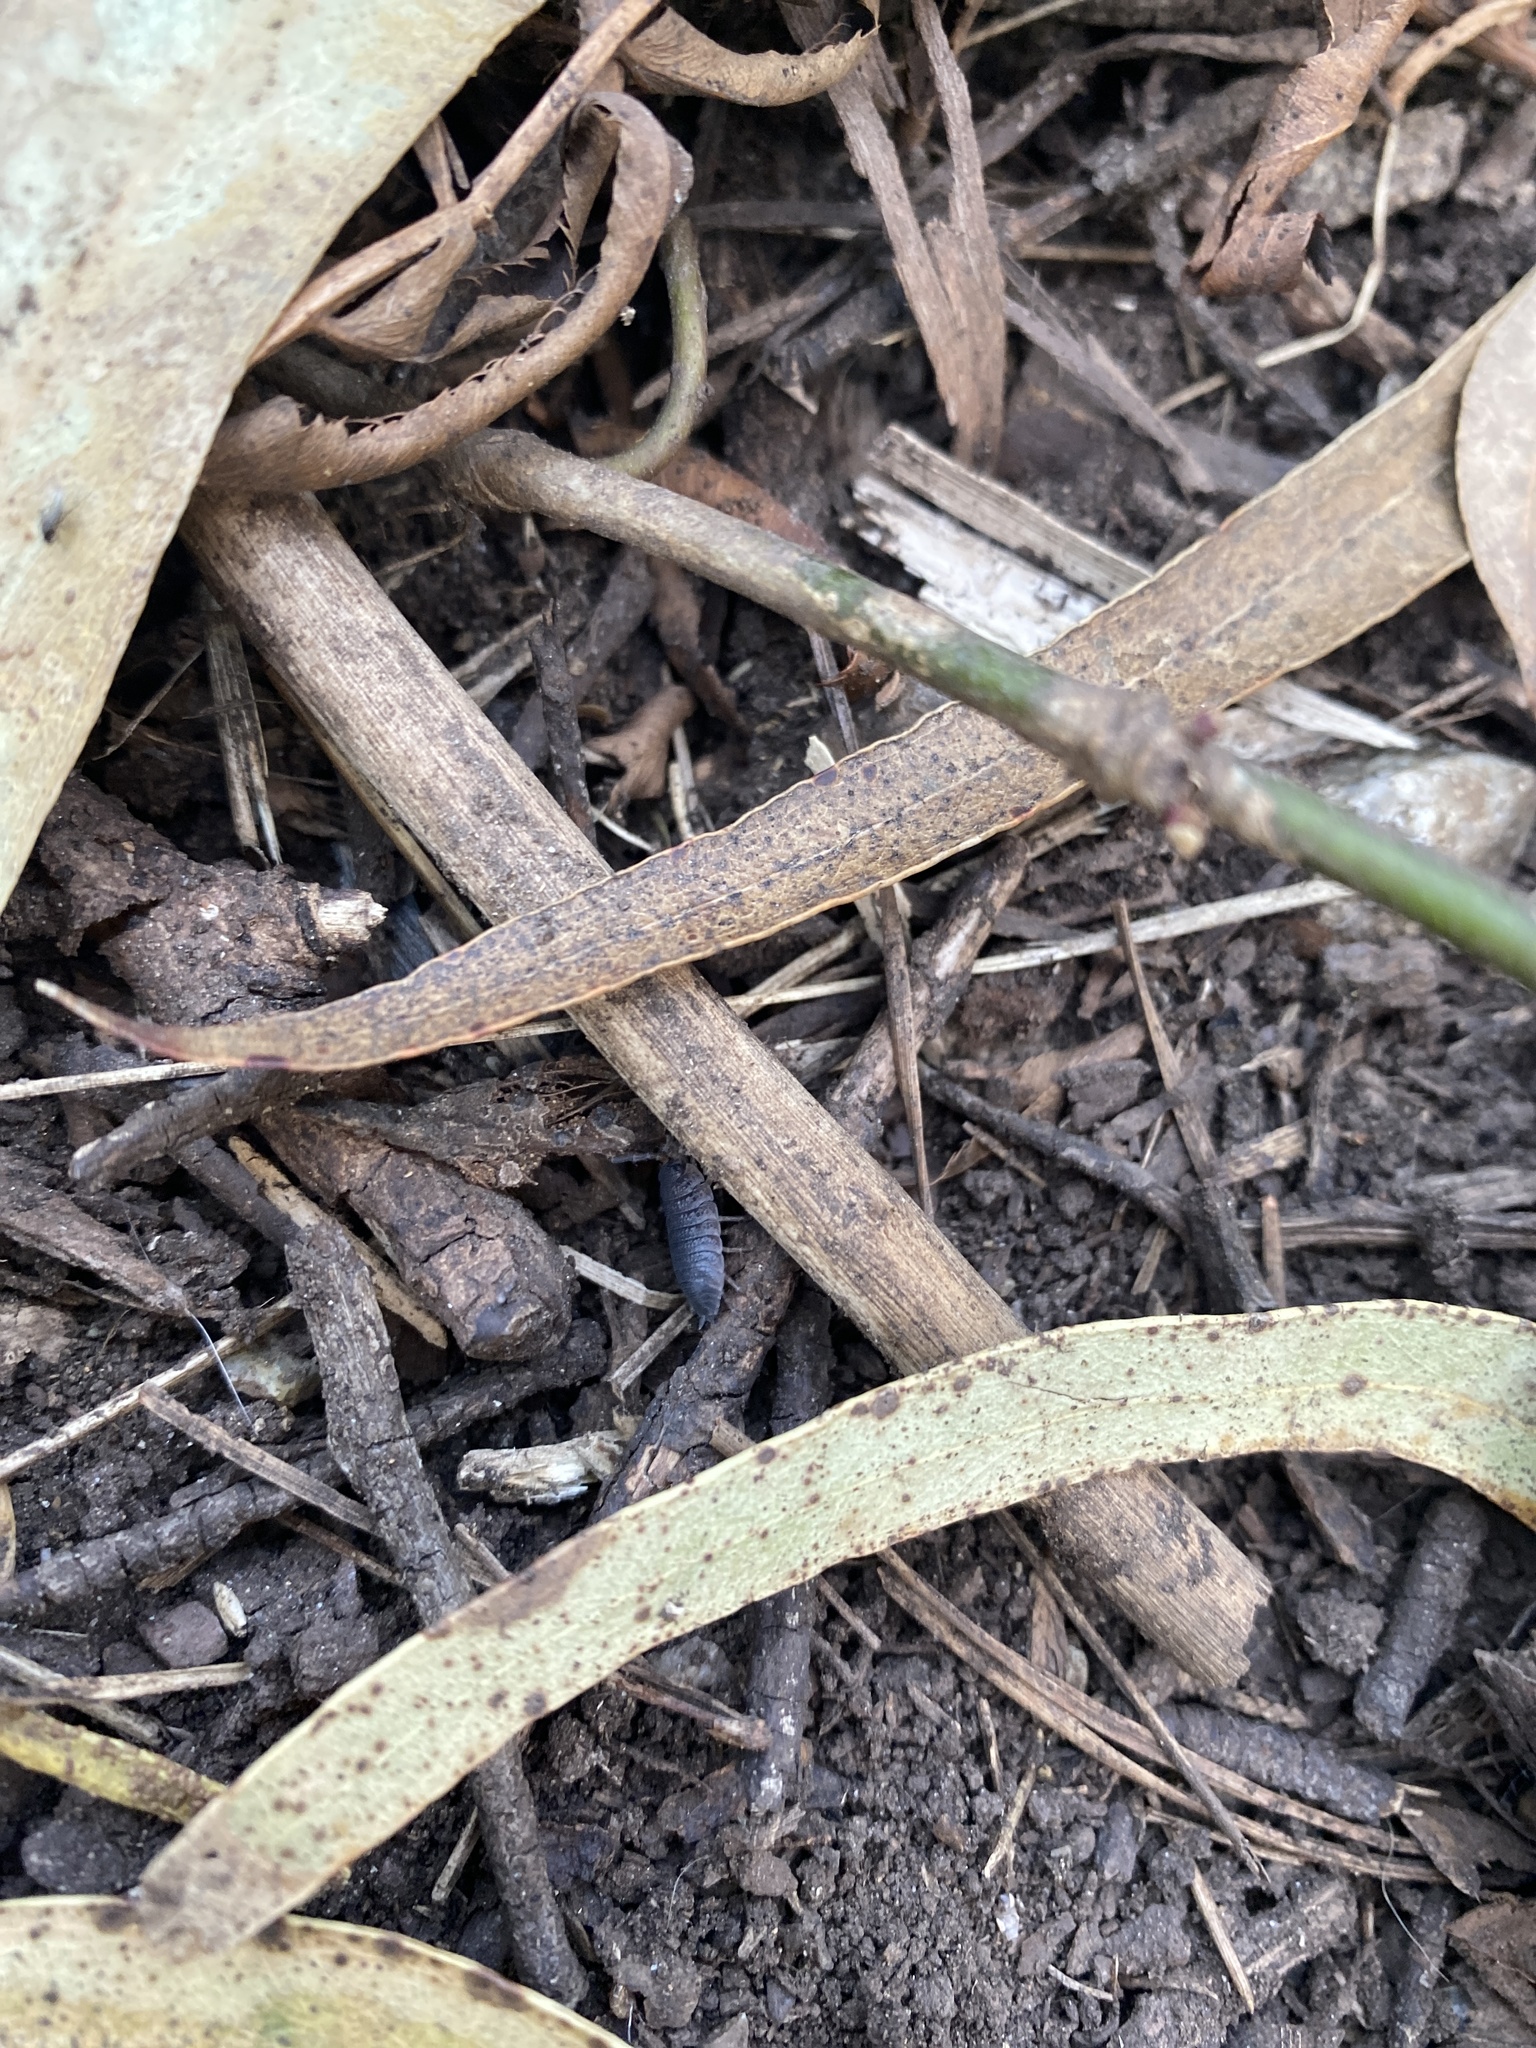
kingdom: Animalia
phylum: Arthropoda
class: Malacostraca
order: Isopoda
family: Porcellionidae
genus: Porcellio
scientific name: Porcellio scaber
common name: Common rough woodlouse
